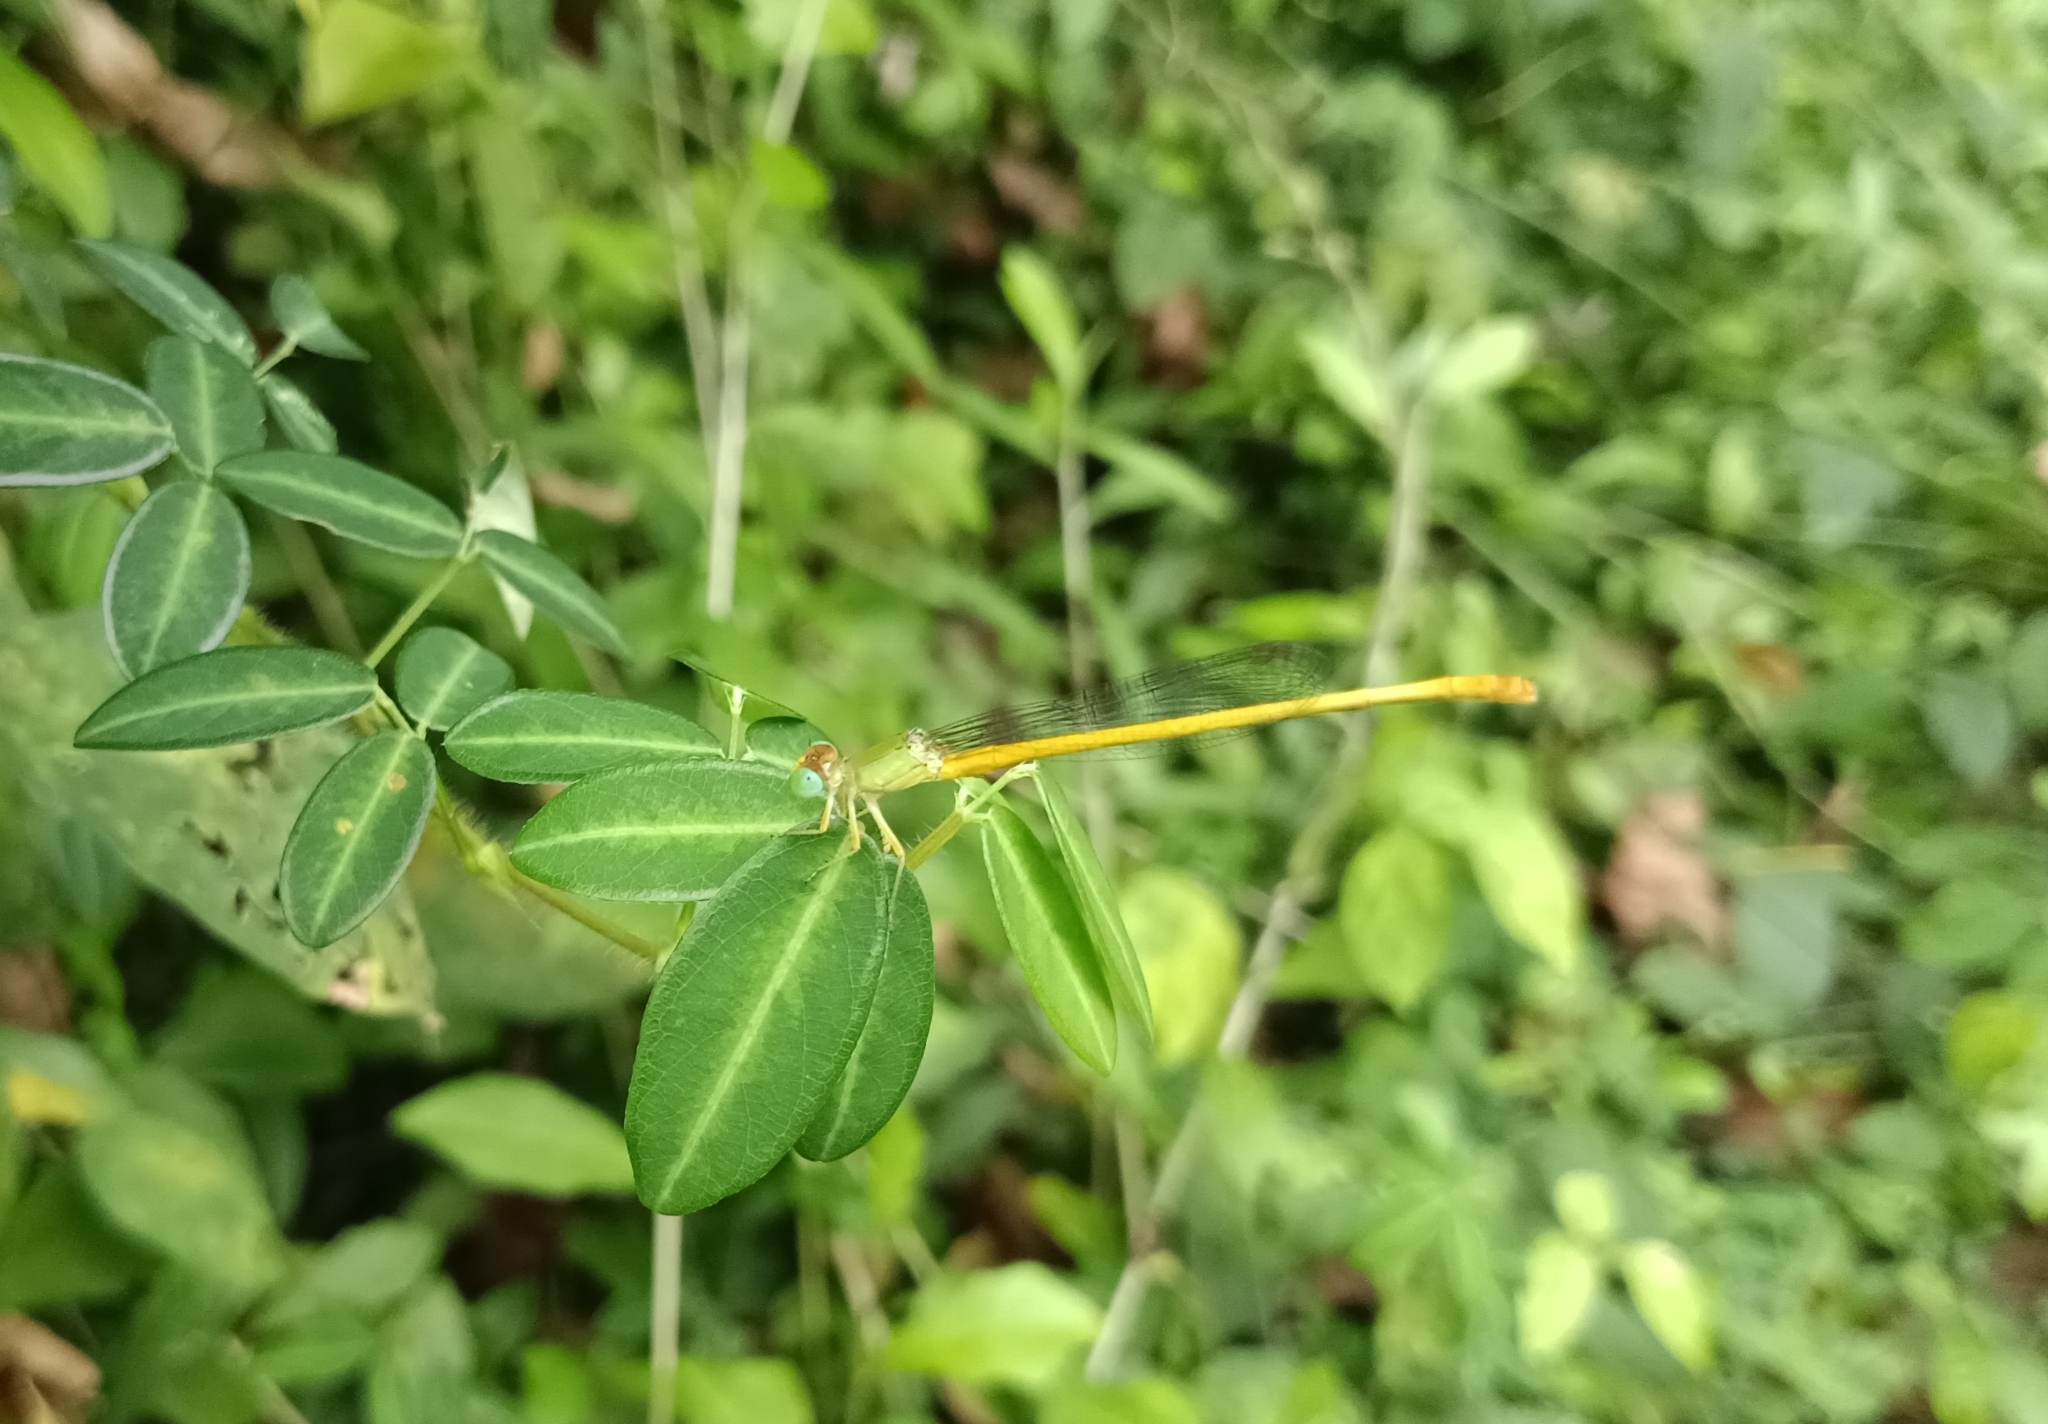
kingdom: Animalia
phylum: Arthropoda
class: Insecta
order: Odonata
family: Coenagrionidae
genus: Ceriagrion
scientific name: Ceriagrion coromandelianum
